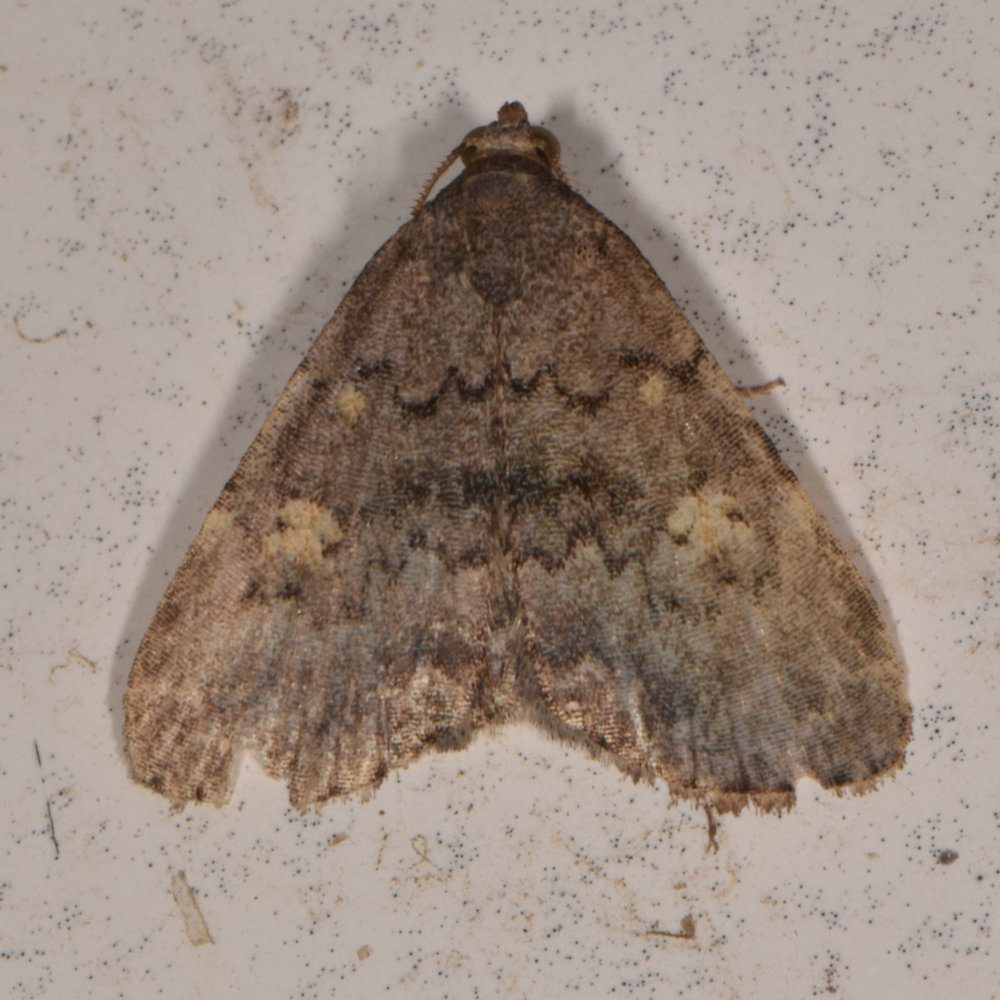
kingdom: Animalia
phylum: Arthropoda
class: Insecta
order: Lepidoptera
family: Erebidae
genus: Idia
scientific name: Idia aemula
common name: Common idia moth
